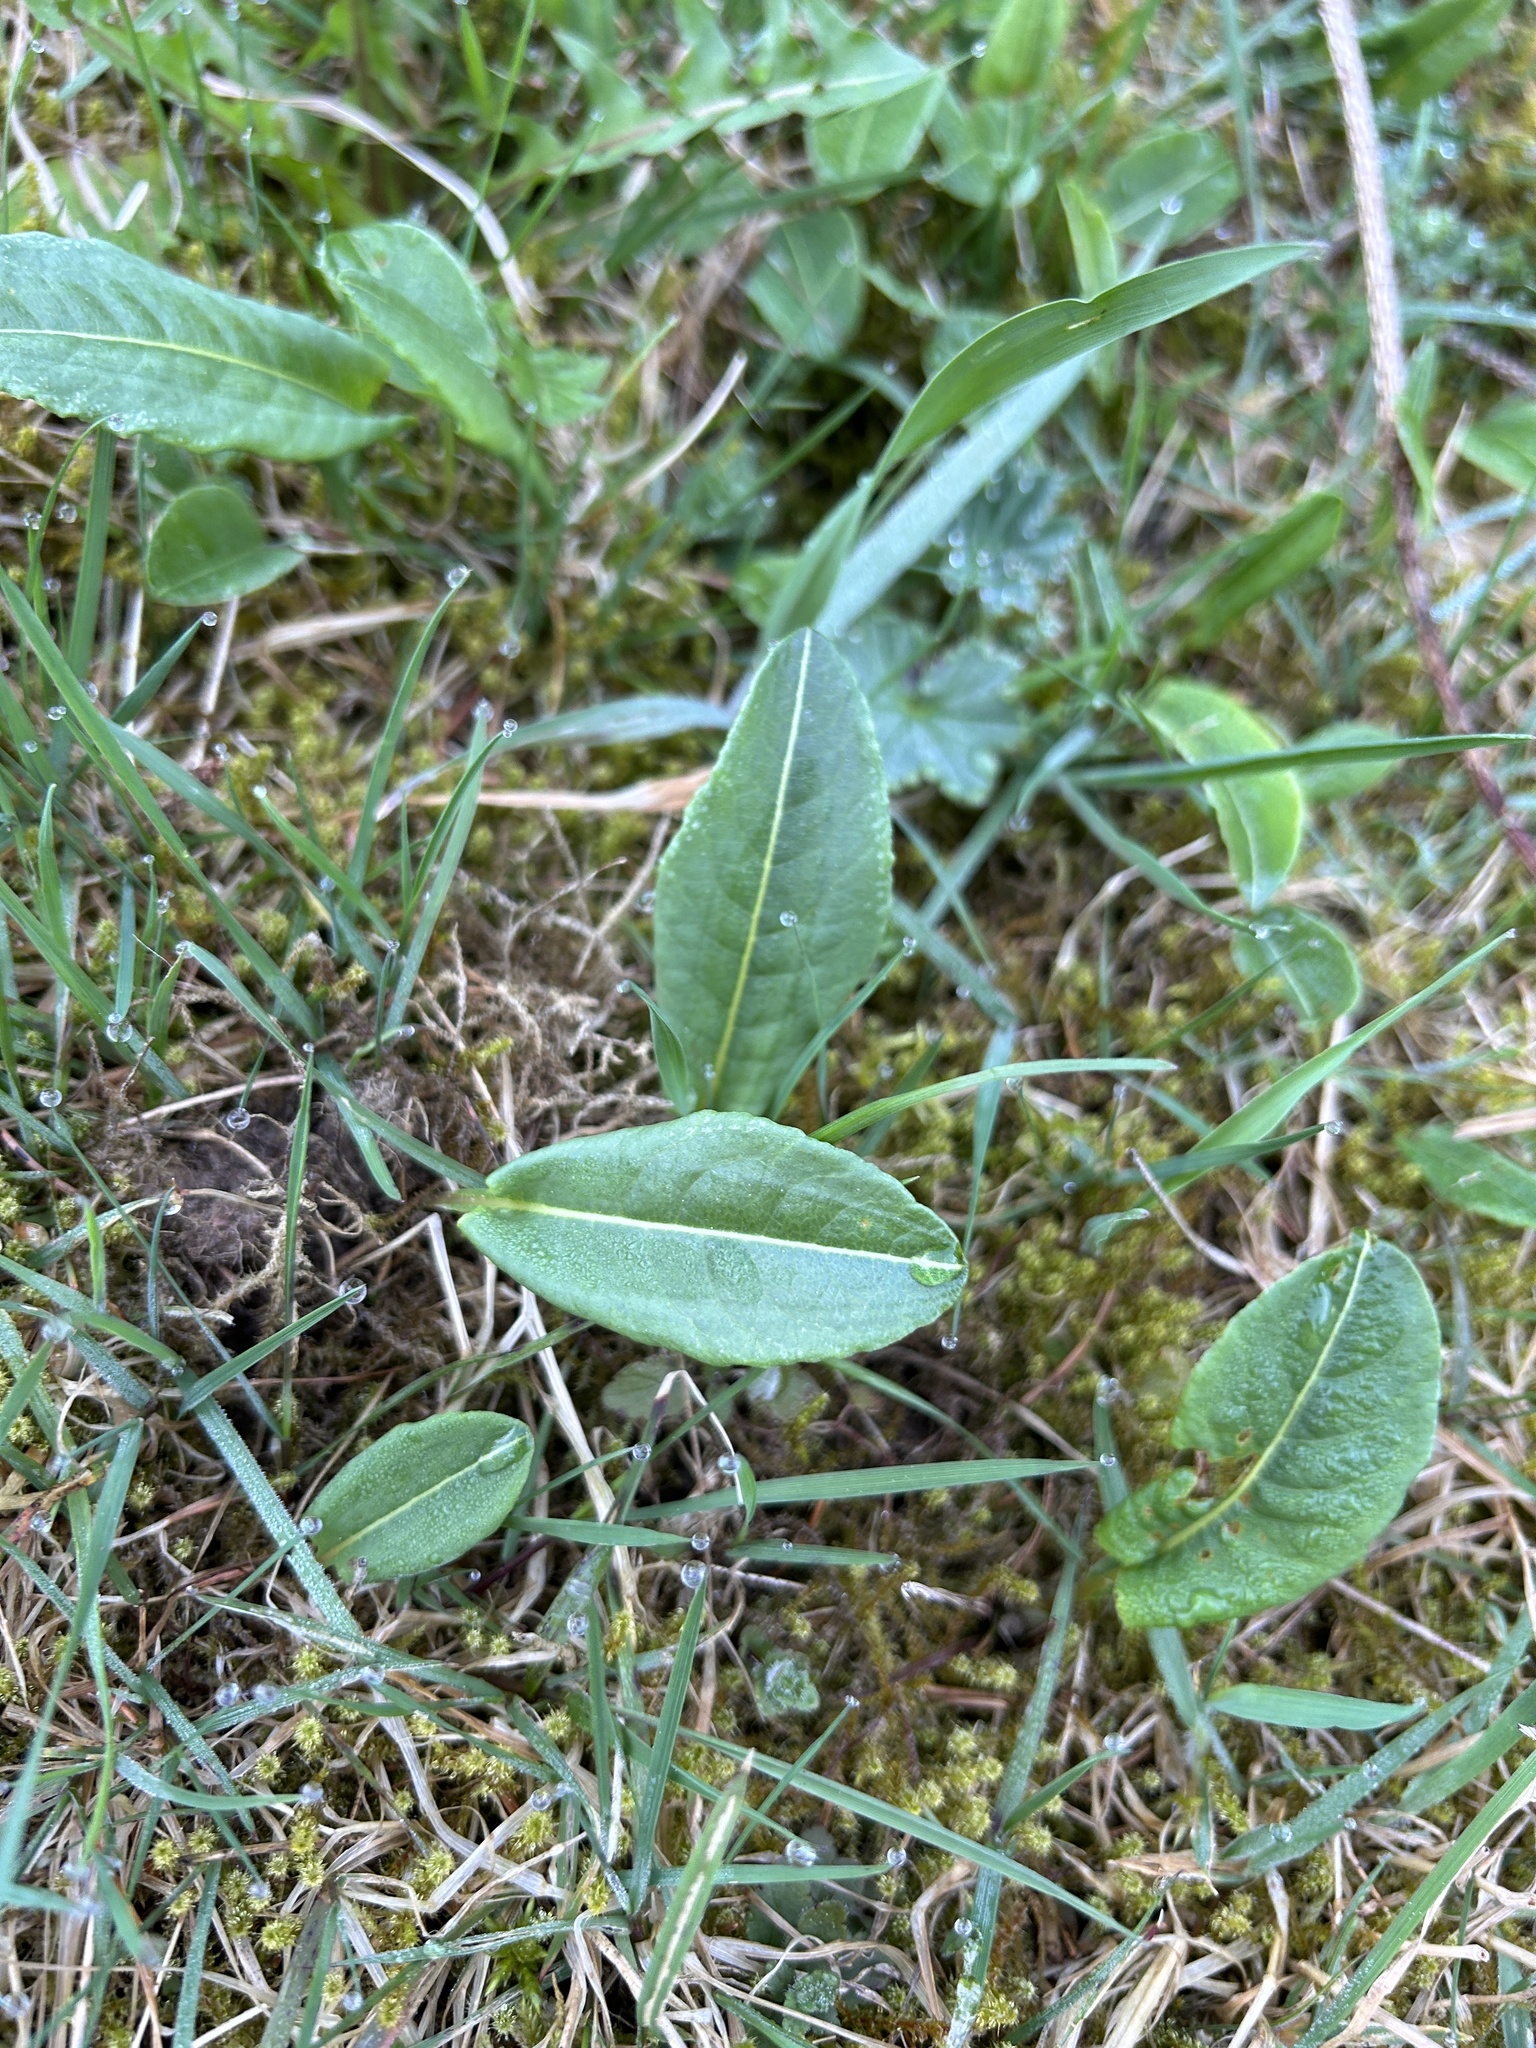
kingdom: Plantae
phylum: Tracheophyta
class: Magnoliopsida
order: Caryophyllales
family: Polygonaceae
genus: Bistorta
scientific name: Bistorta officinalis
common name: Common bistort
